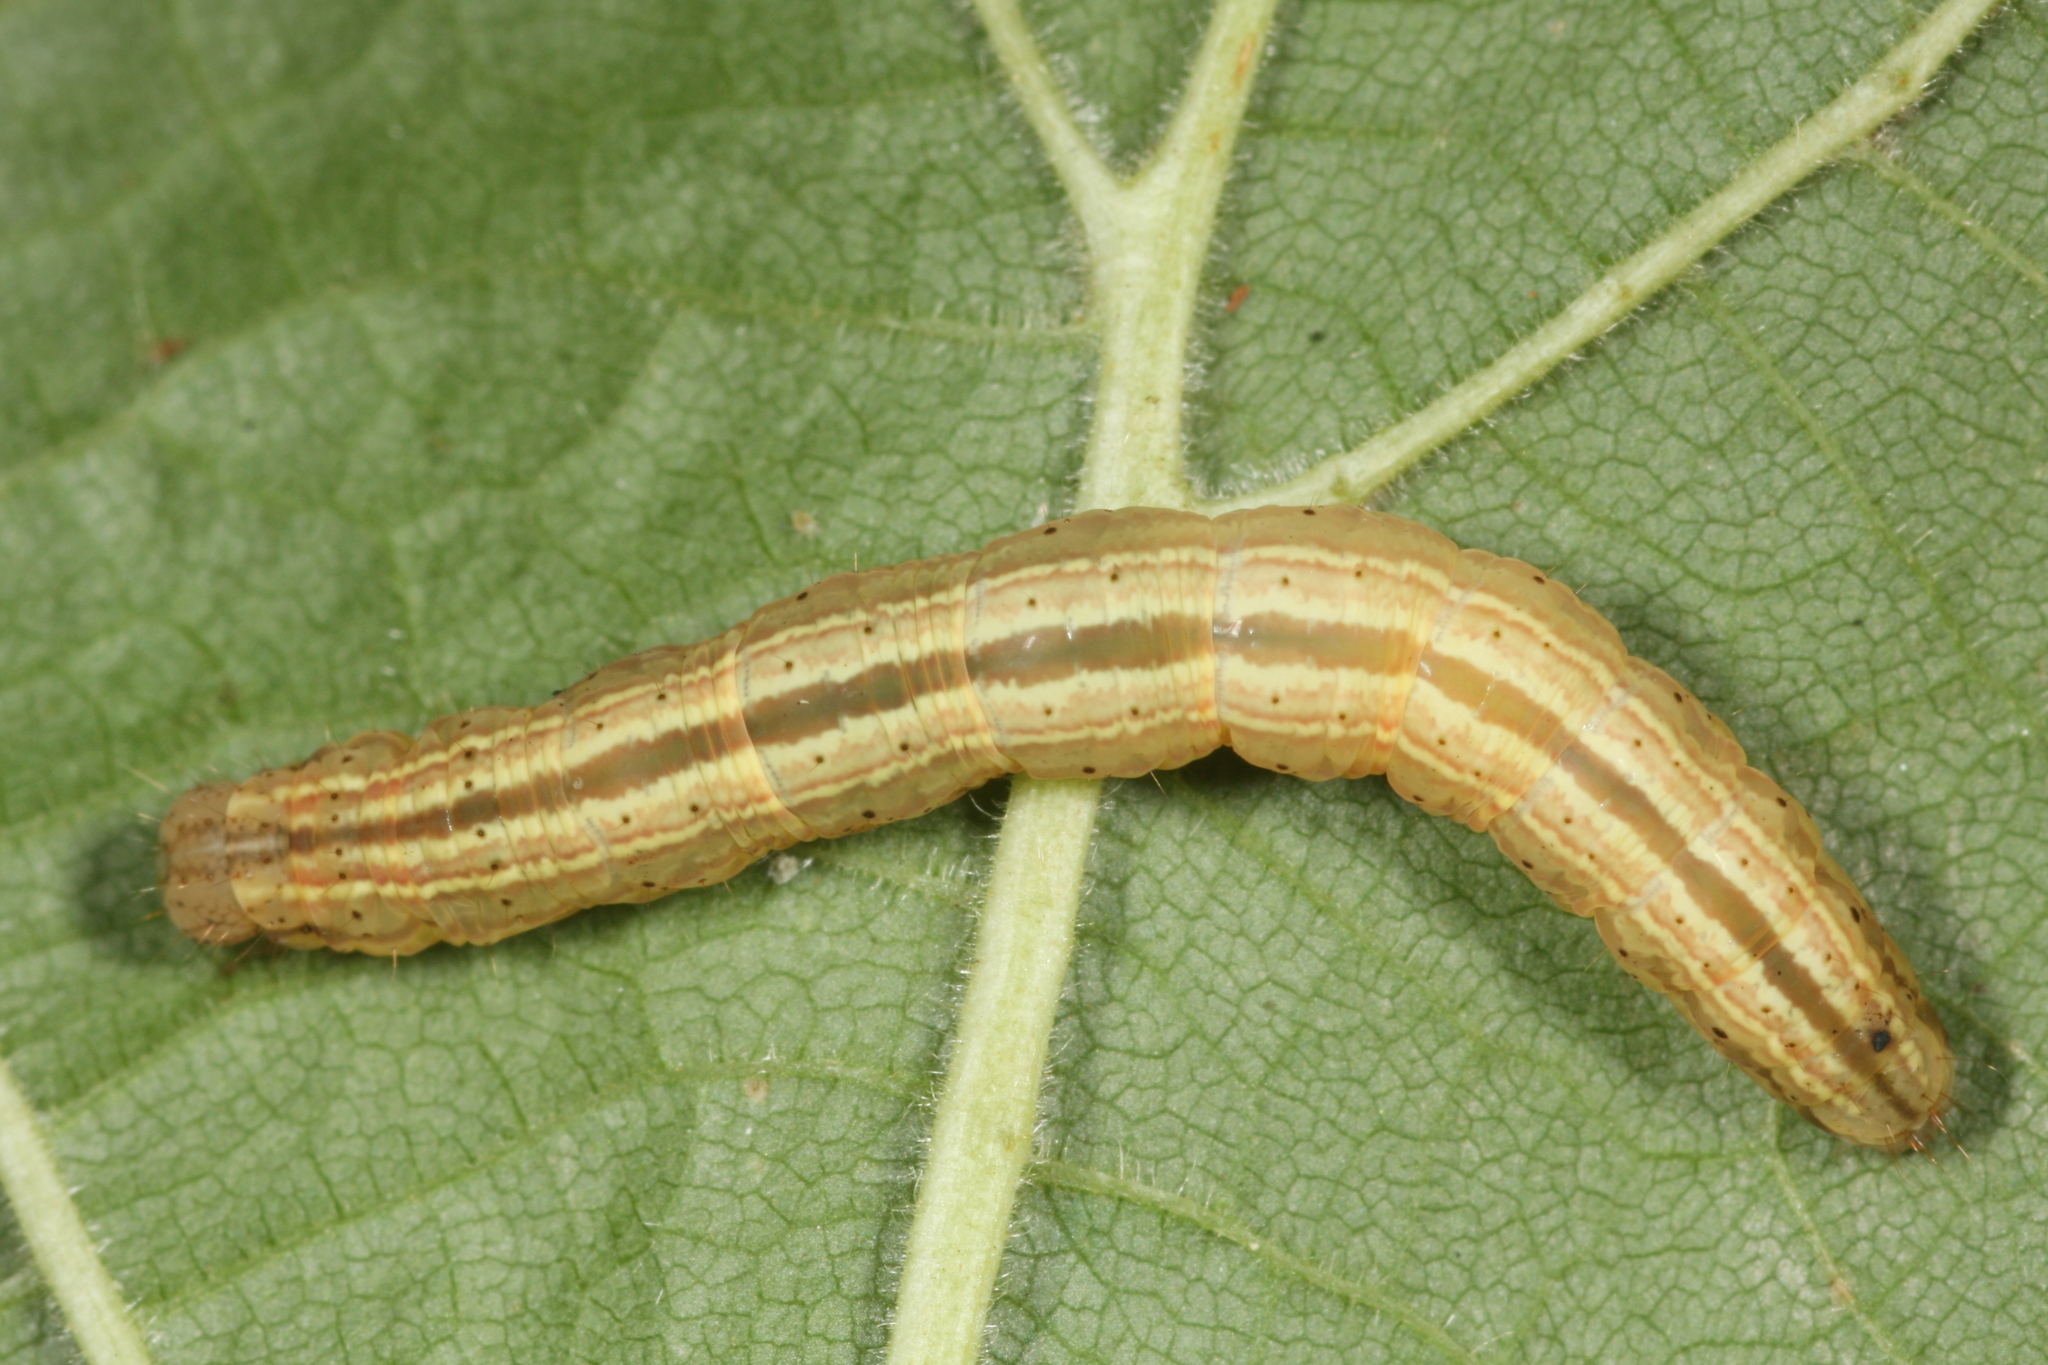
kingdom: Animalia
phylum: Arthropoda
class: Insecta
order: Lepidoptera
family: Noctuidae
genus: Deltote
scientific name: Deltote pygarga
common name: Marbled white spot
